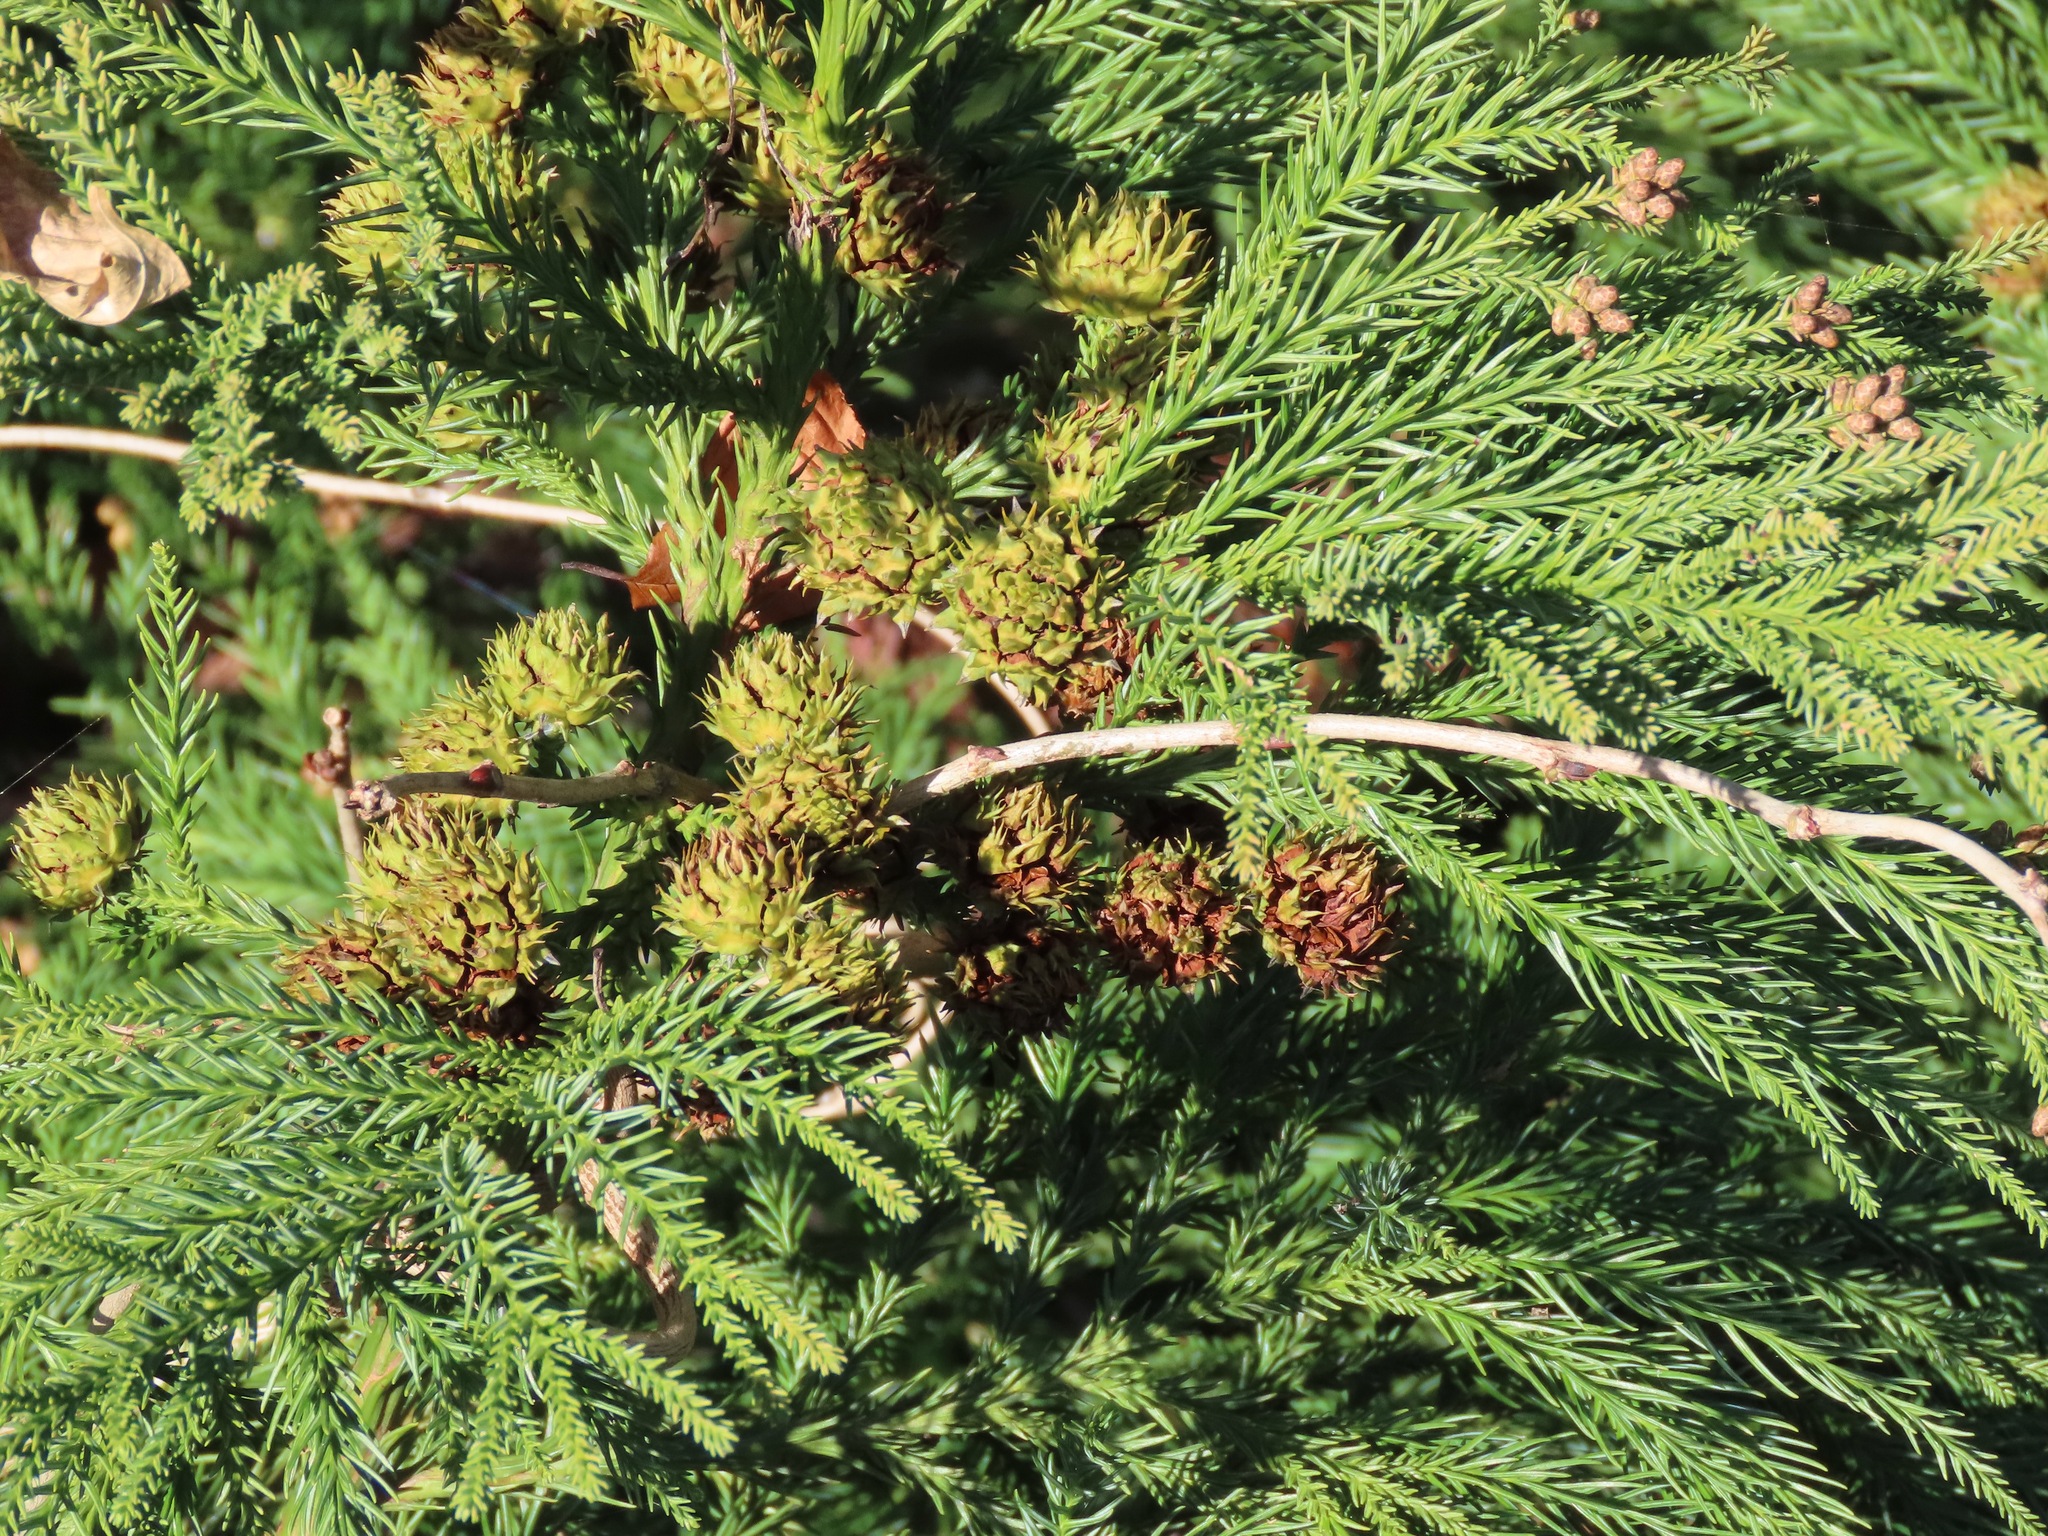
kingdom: Plantae
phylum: Tracheophyta
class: Pinopsida
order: Pinales
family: Cupressaceae
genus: Cryptomeria
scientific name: Cryptomeria japonica
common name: Japanese cedar
